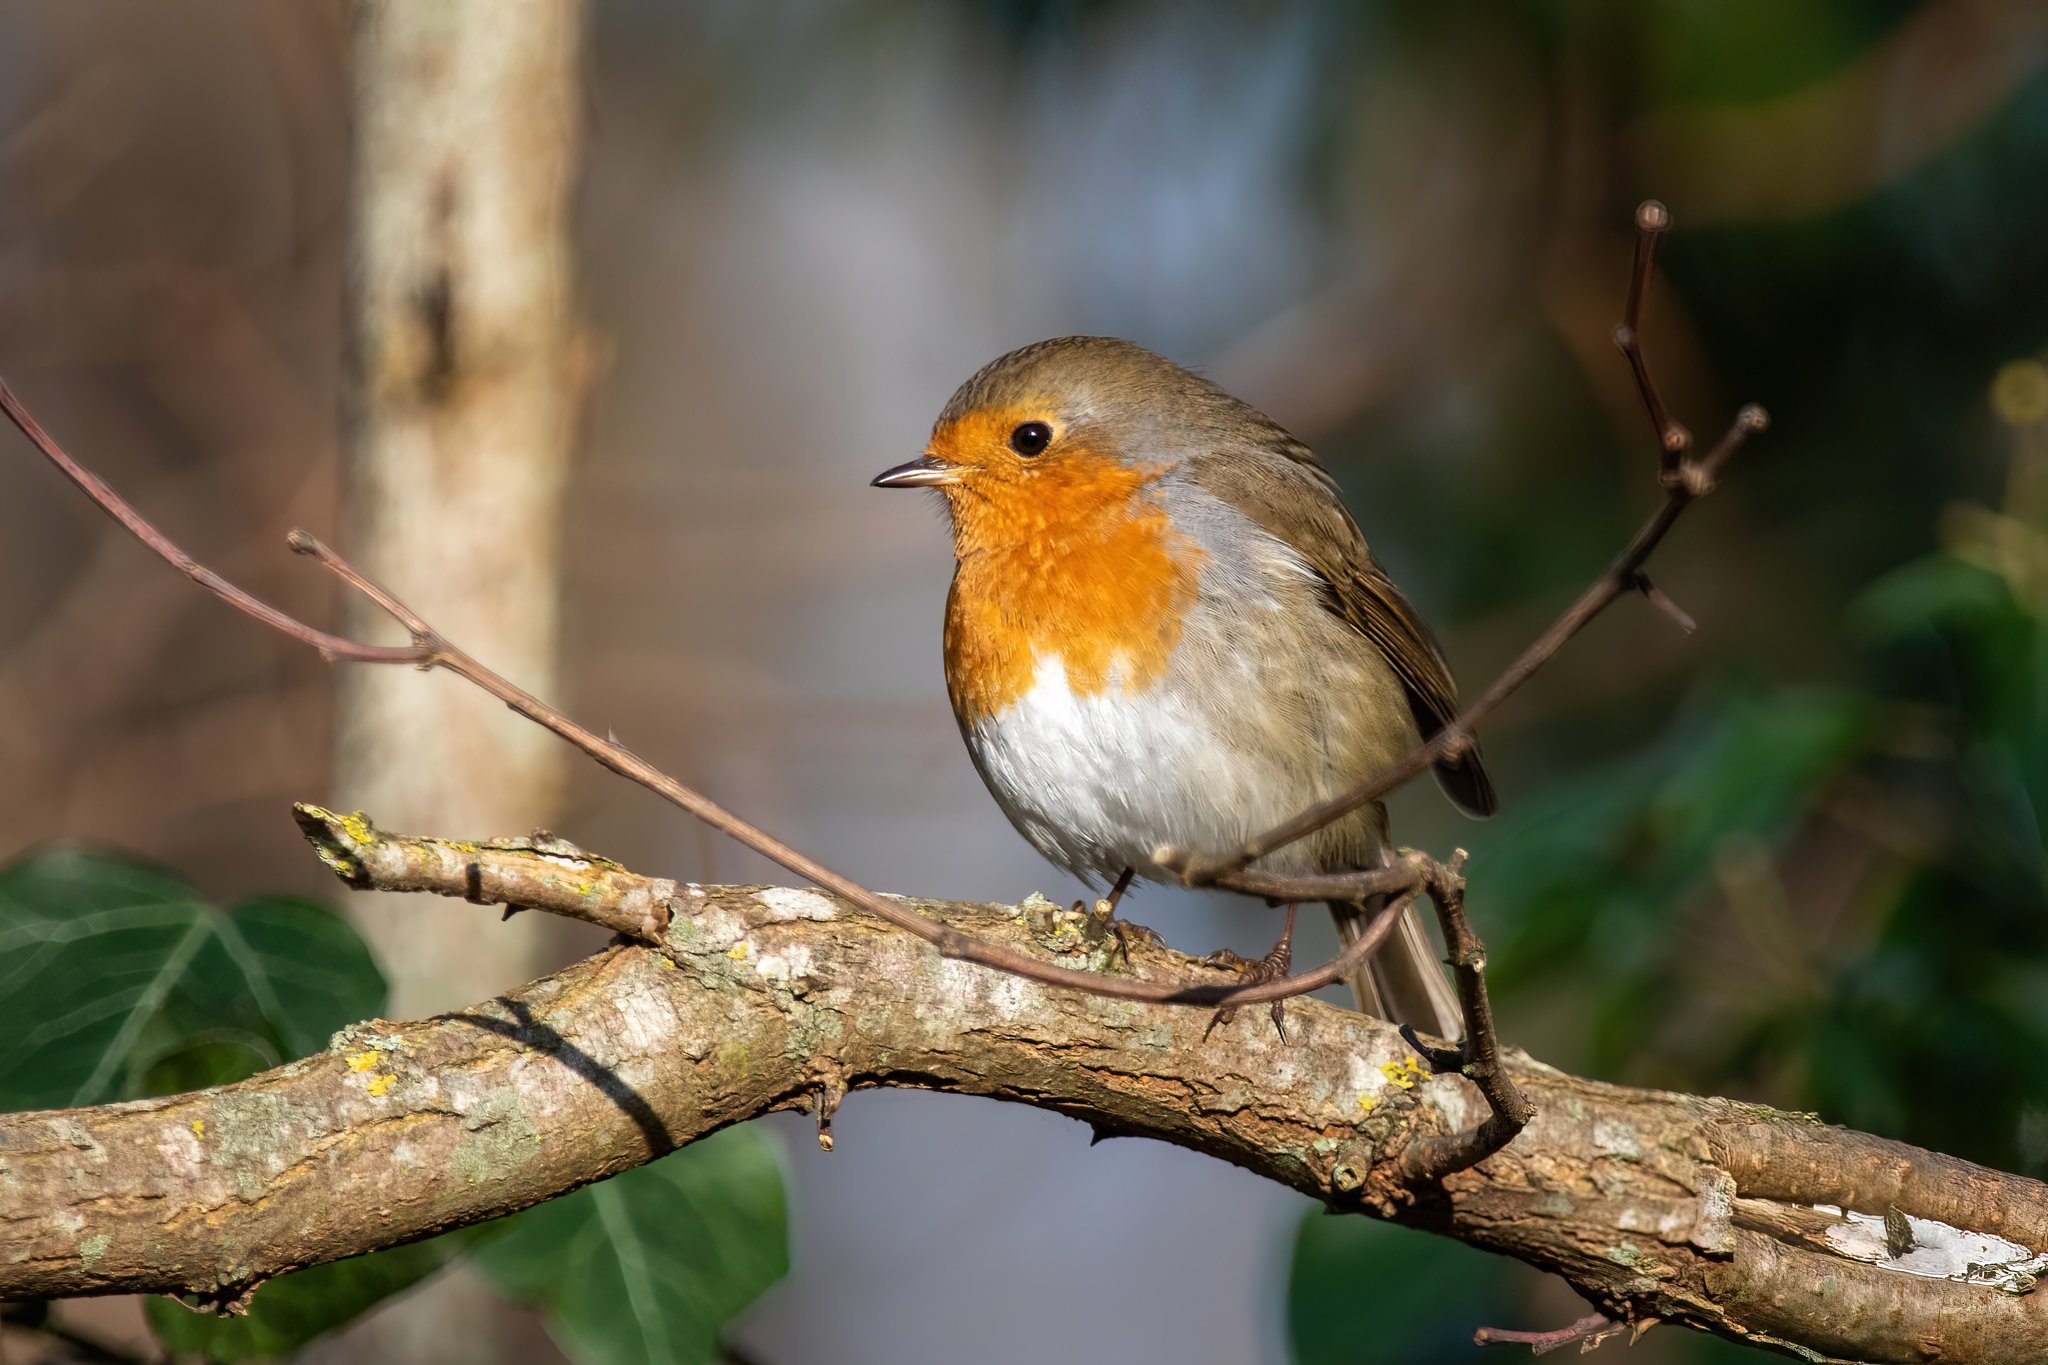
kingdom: Animalia
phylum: Chordata
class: Aves
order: Passeriformes
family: Muscicapidae
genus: Erithacus
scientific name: Erithacus rubecula
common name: European robin
